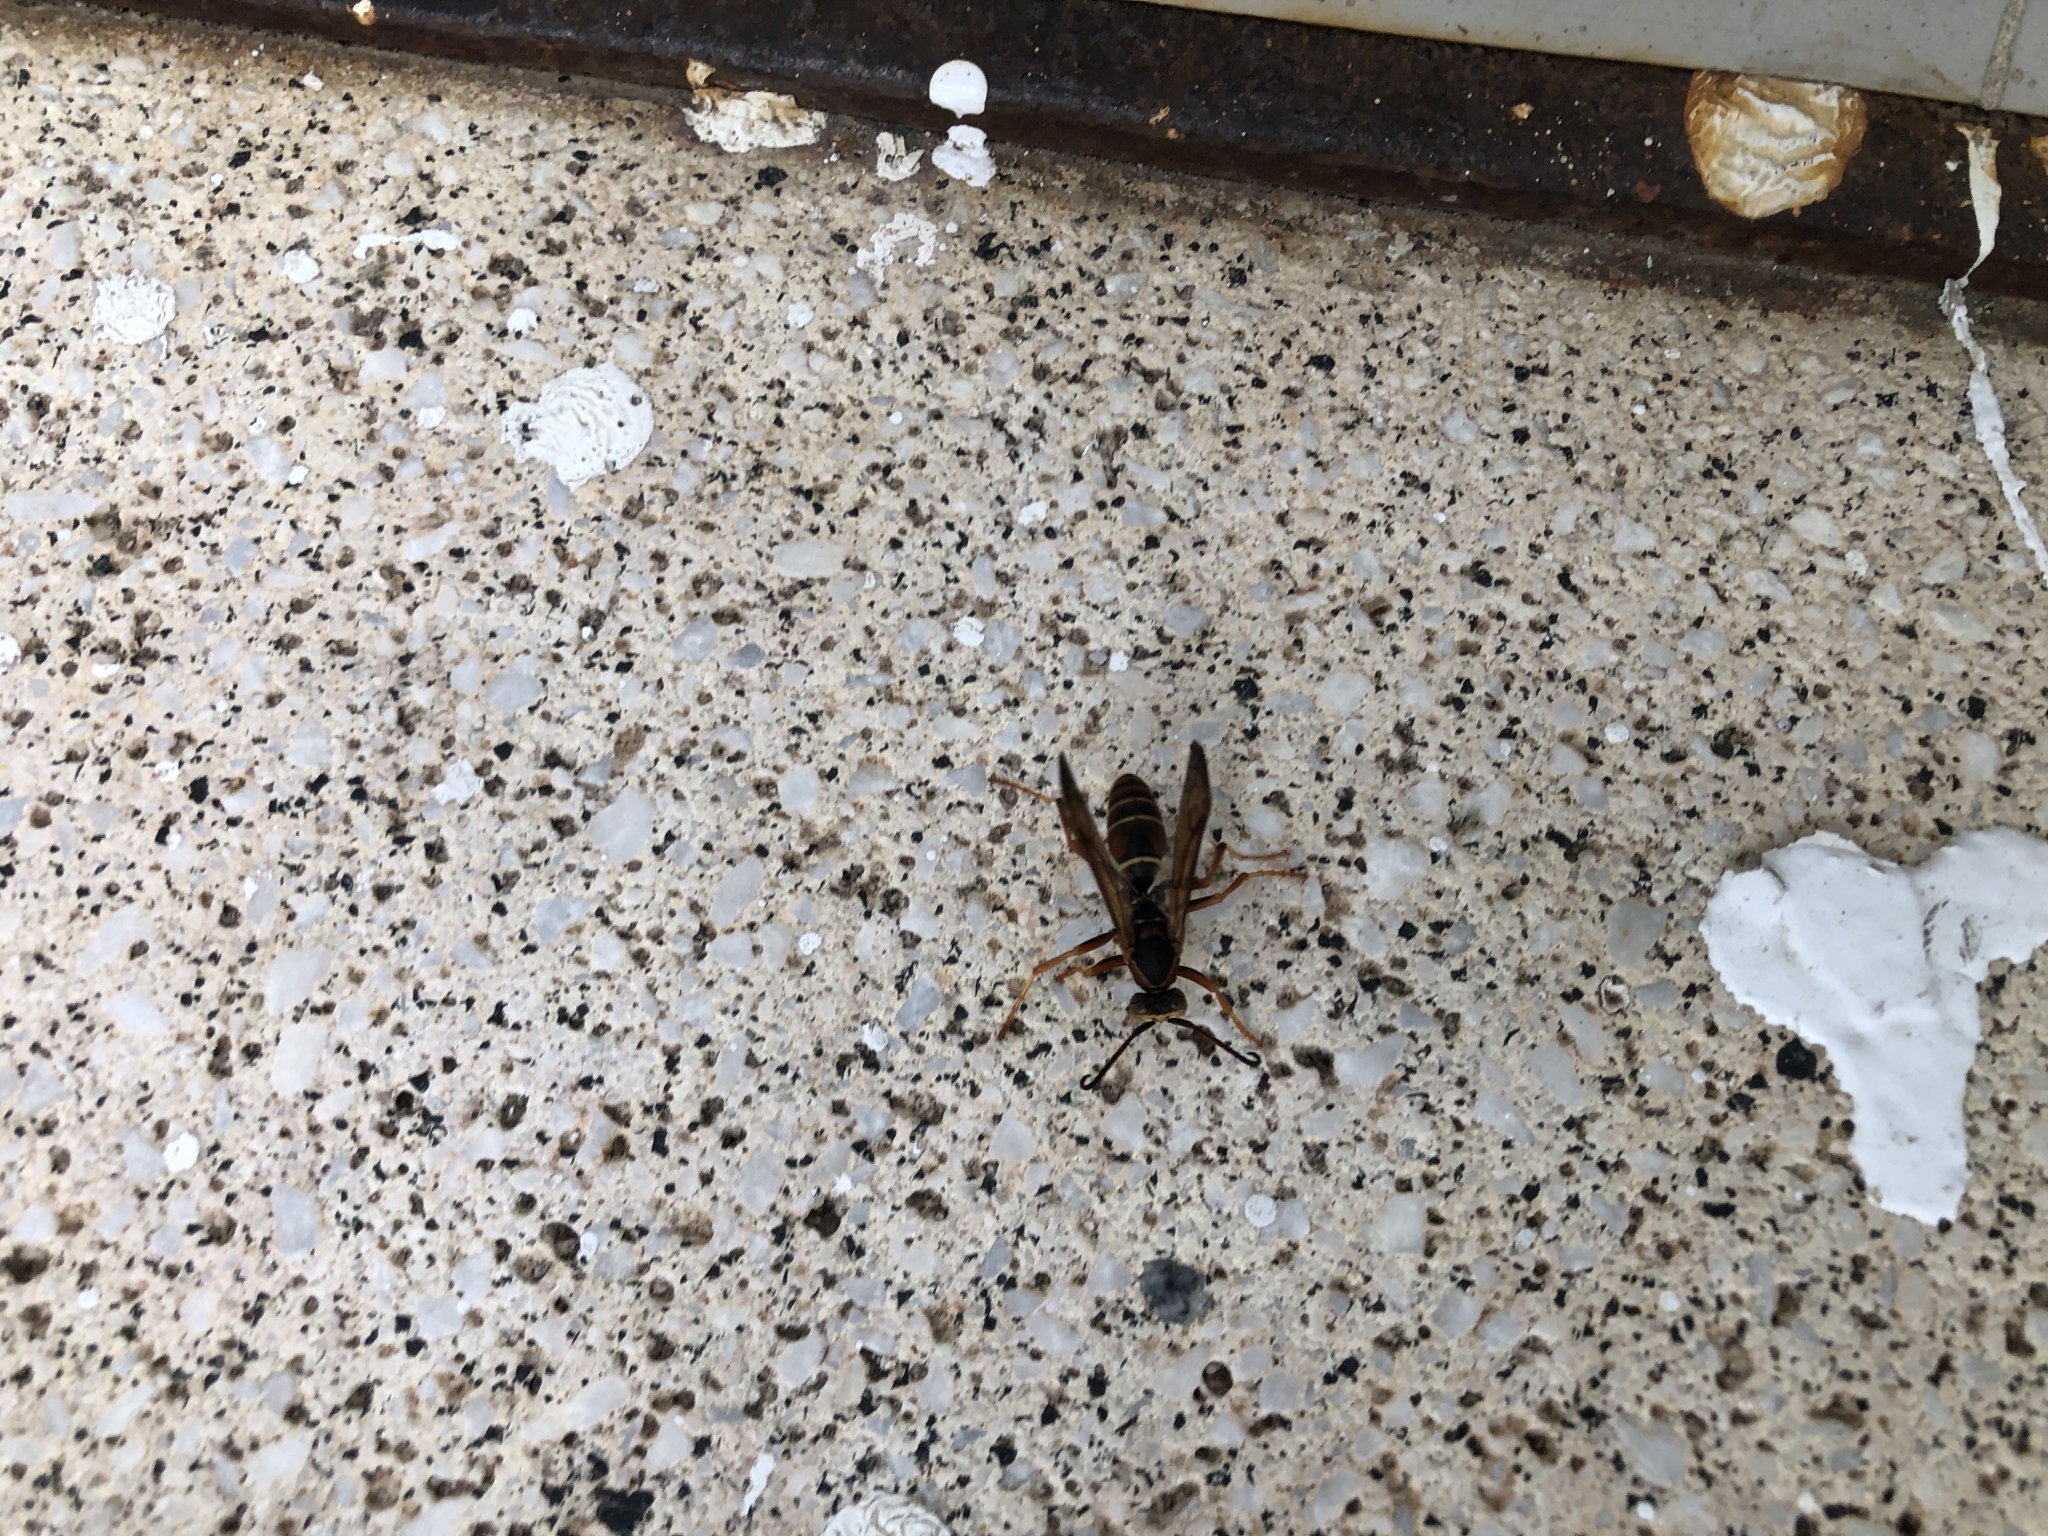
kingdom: Animalia
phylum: Arthropoda
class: Insecta
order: Hymenoptera
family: Eumenidae
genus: Polistes
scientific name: Polistes fuscatus
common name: Dark paper wasp
